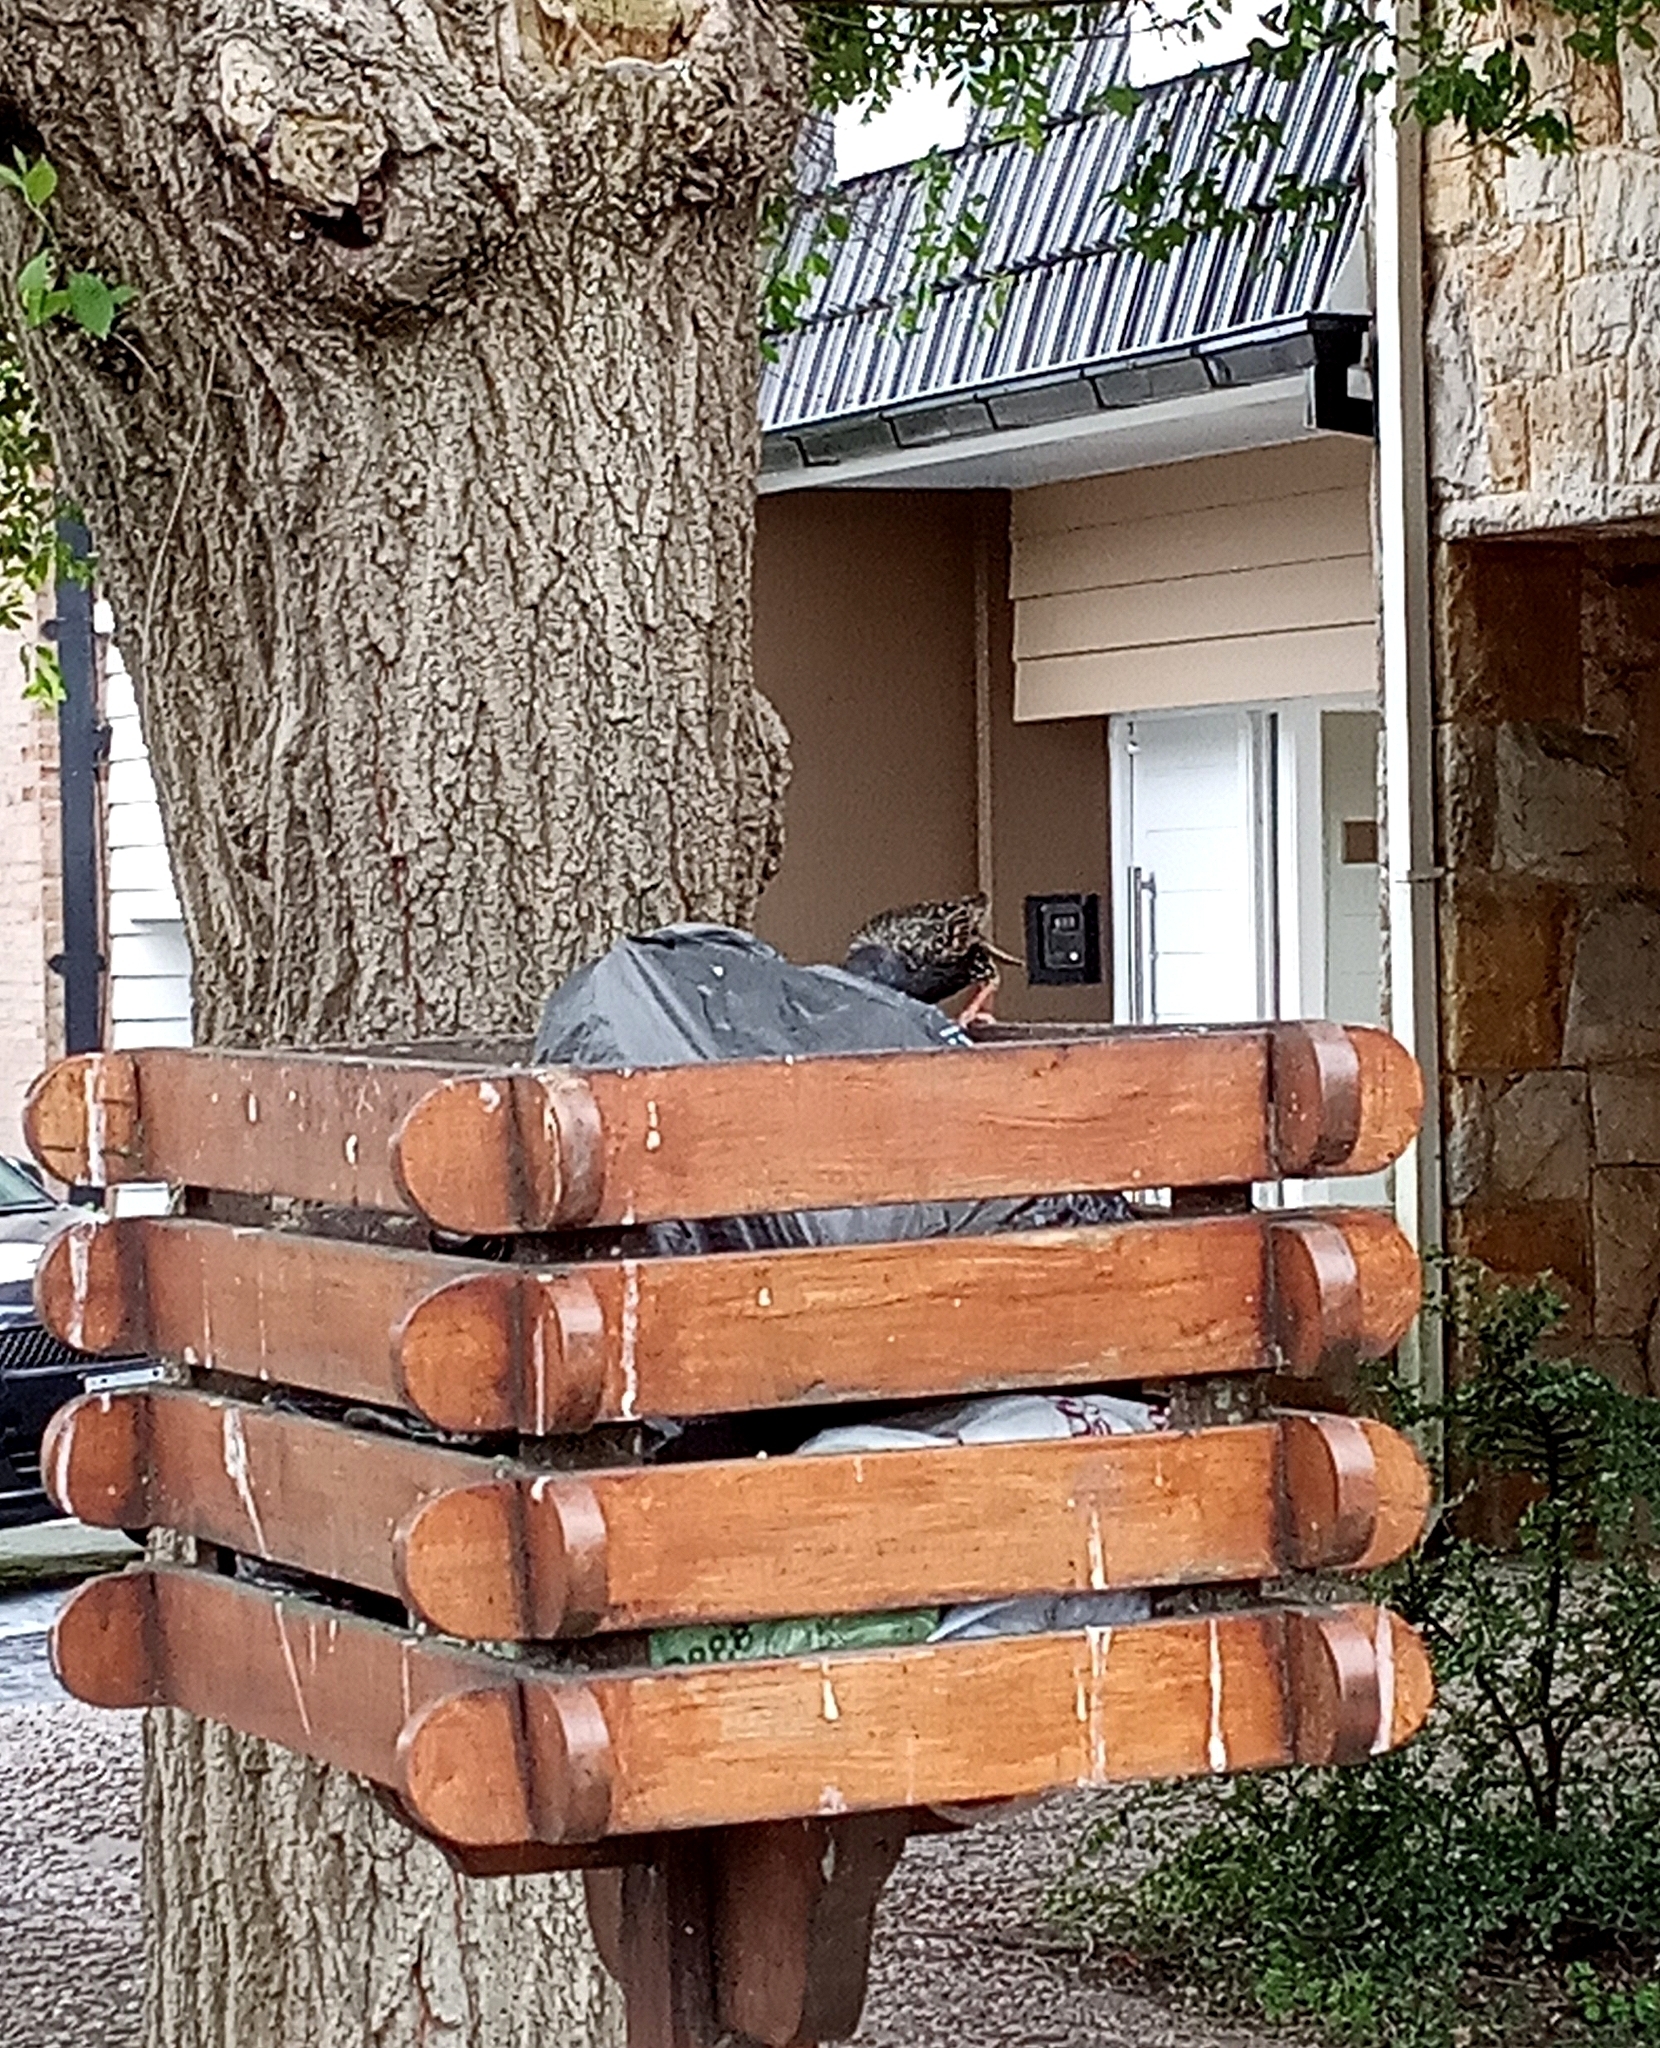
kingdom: Animalia
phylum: Chordata
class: Aves
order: Passeriformes
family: Sturnidae
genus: Sturnus
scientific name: Sturnus vulgaris
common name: Common starling
